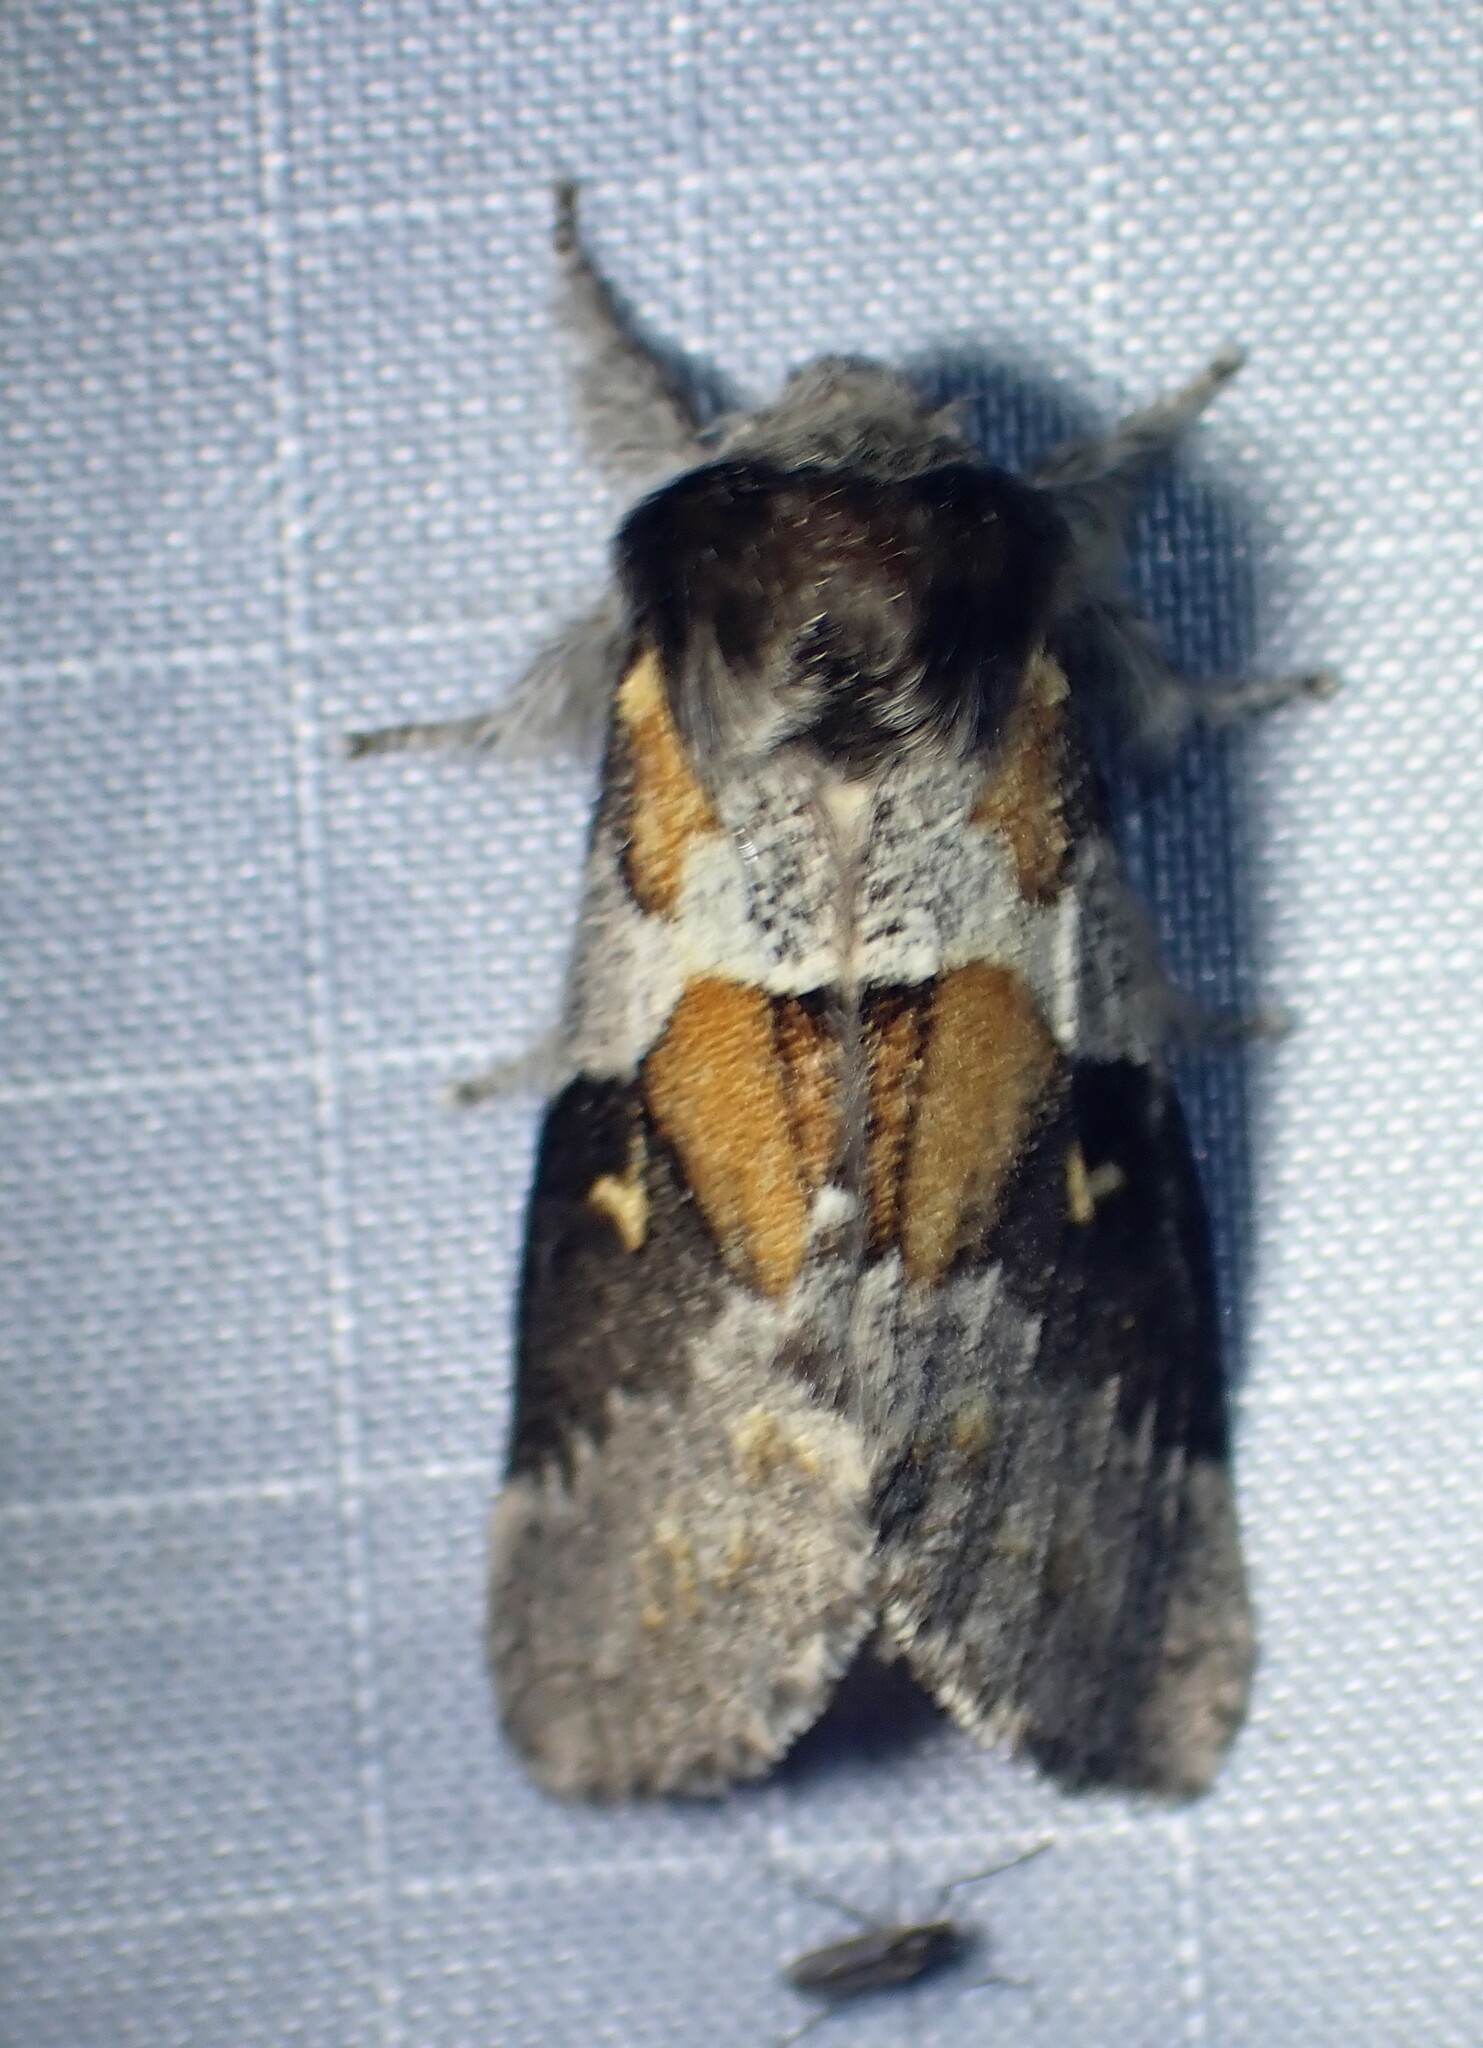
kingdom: Animalia
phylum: Arthropoda
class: Insecta
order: Lepidoptera
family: Notodontidae
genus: Gluphisia
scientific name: Gluphisia avimacula
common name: Four-spotted gluphisia moth
